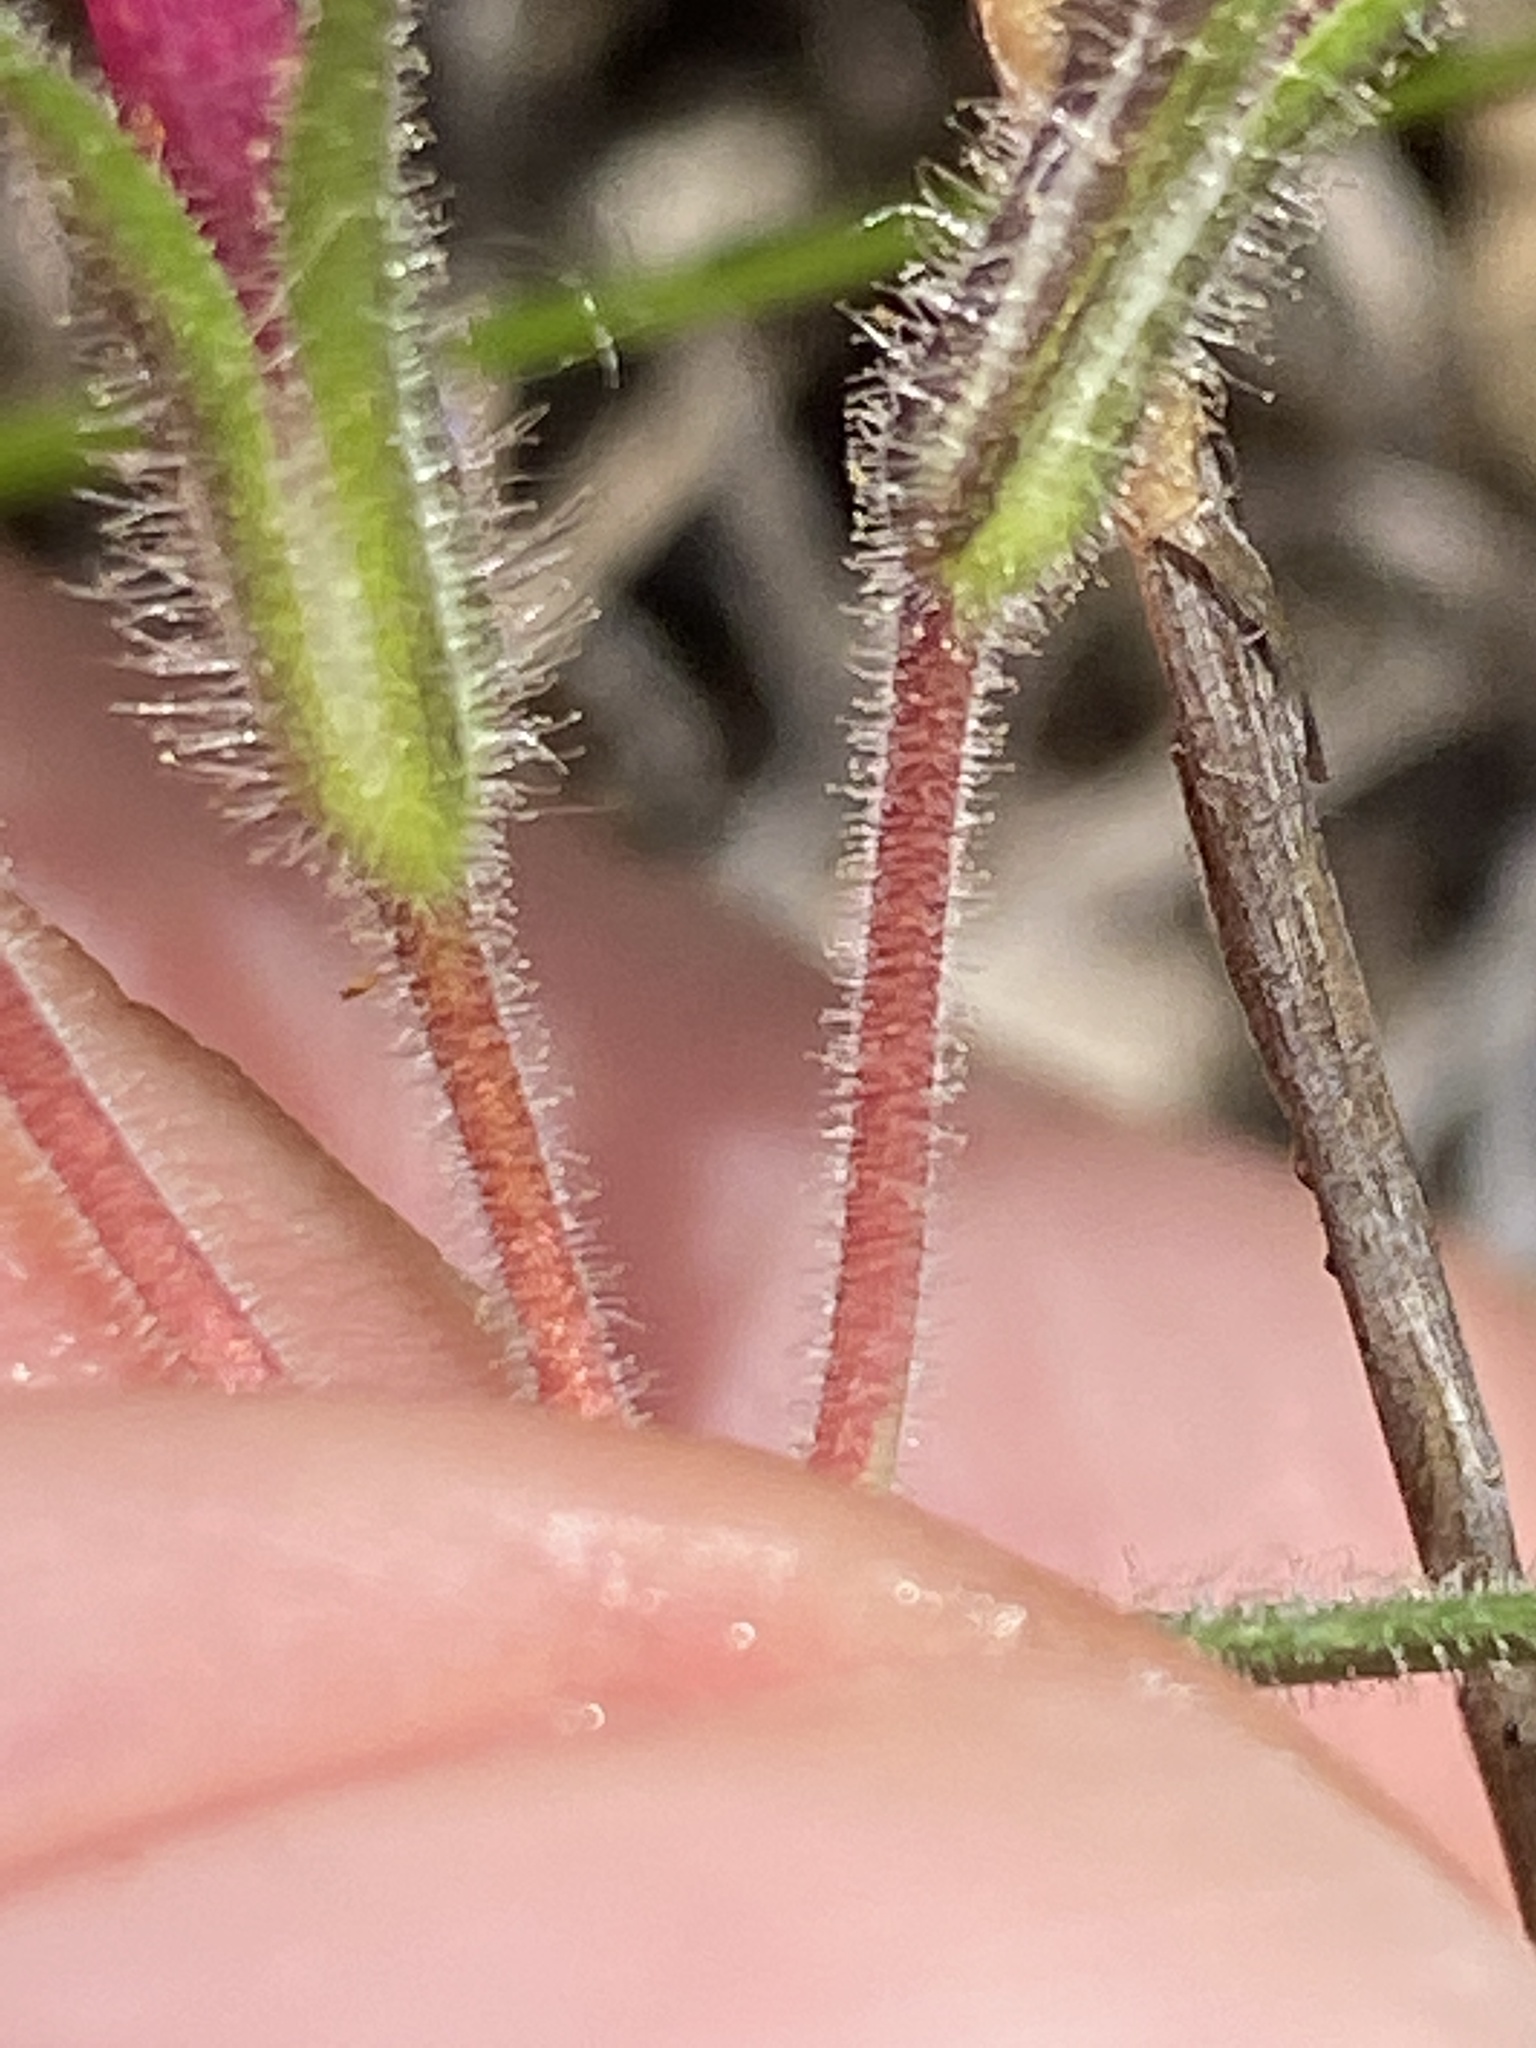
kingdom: Plantae
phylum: Tracheophyta
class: Magnoliopsida
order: Ericales
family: Polemoniaceae
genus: Phlox
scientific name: Phlox nivalis
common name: Trailing phlox
